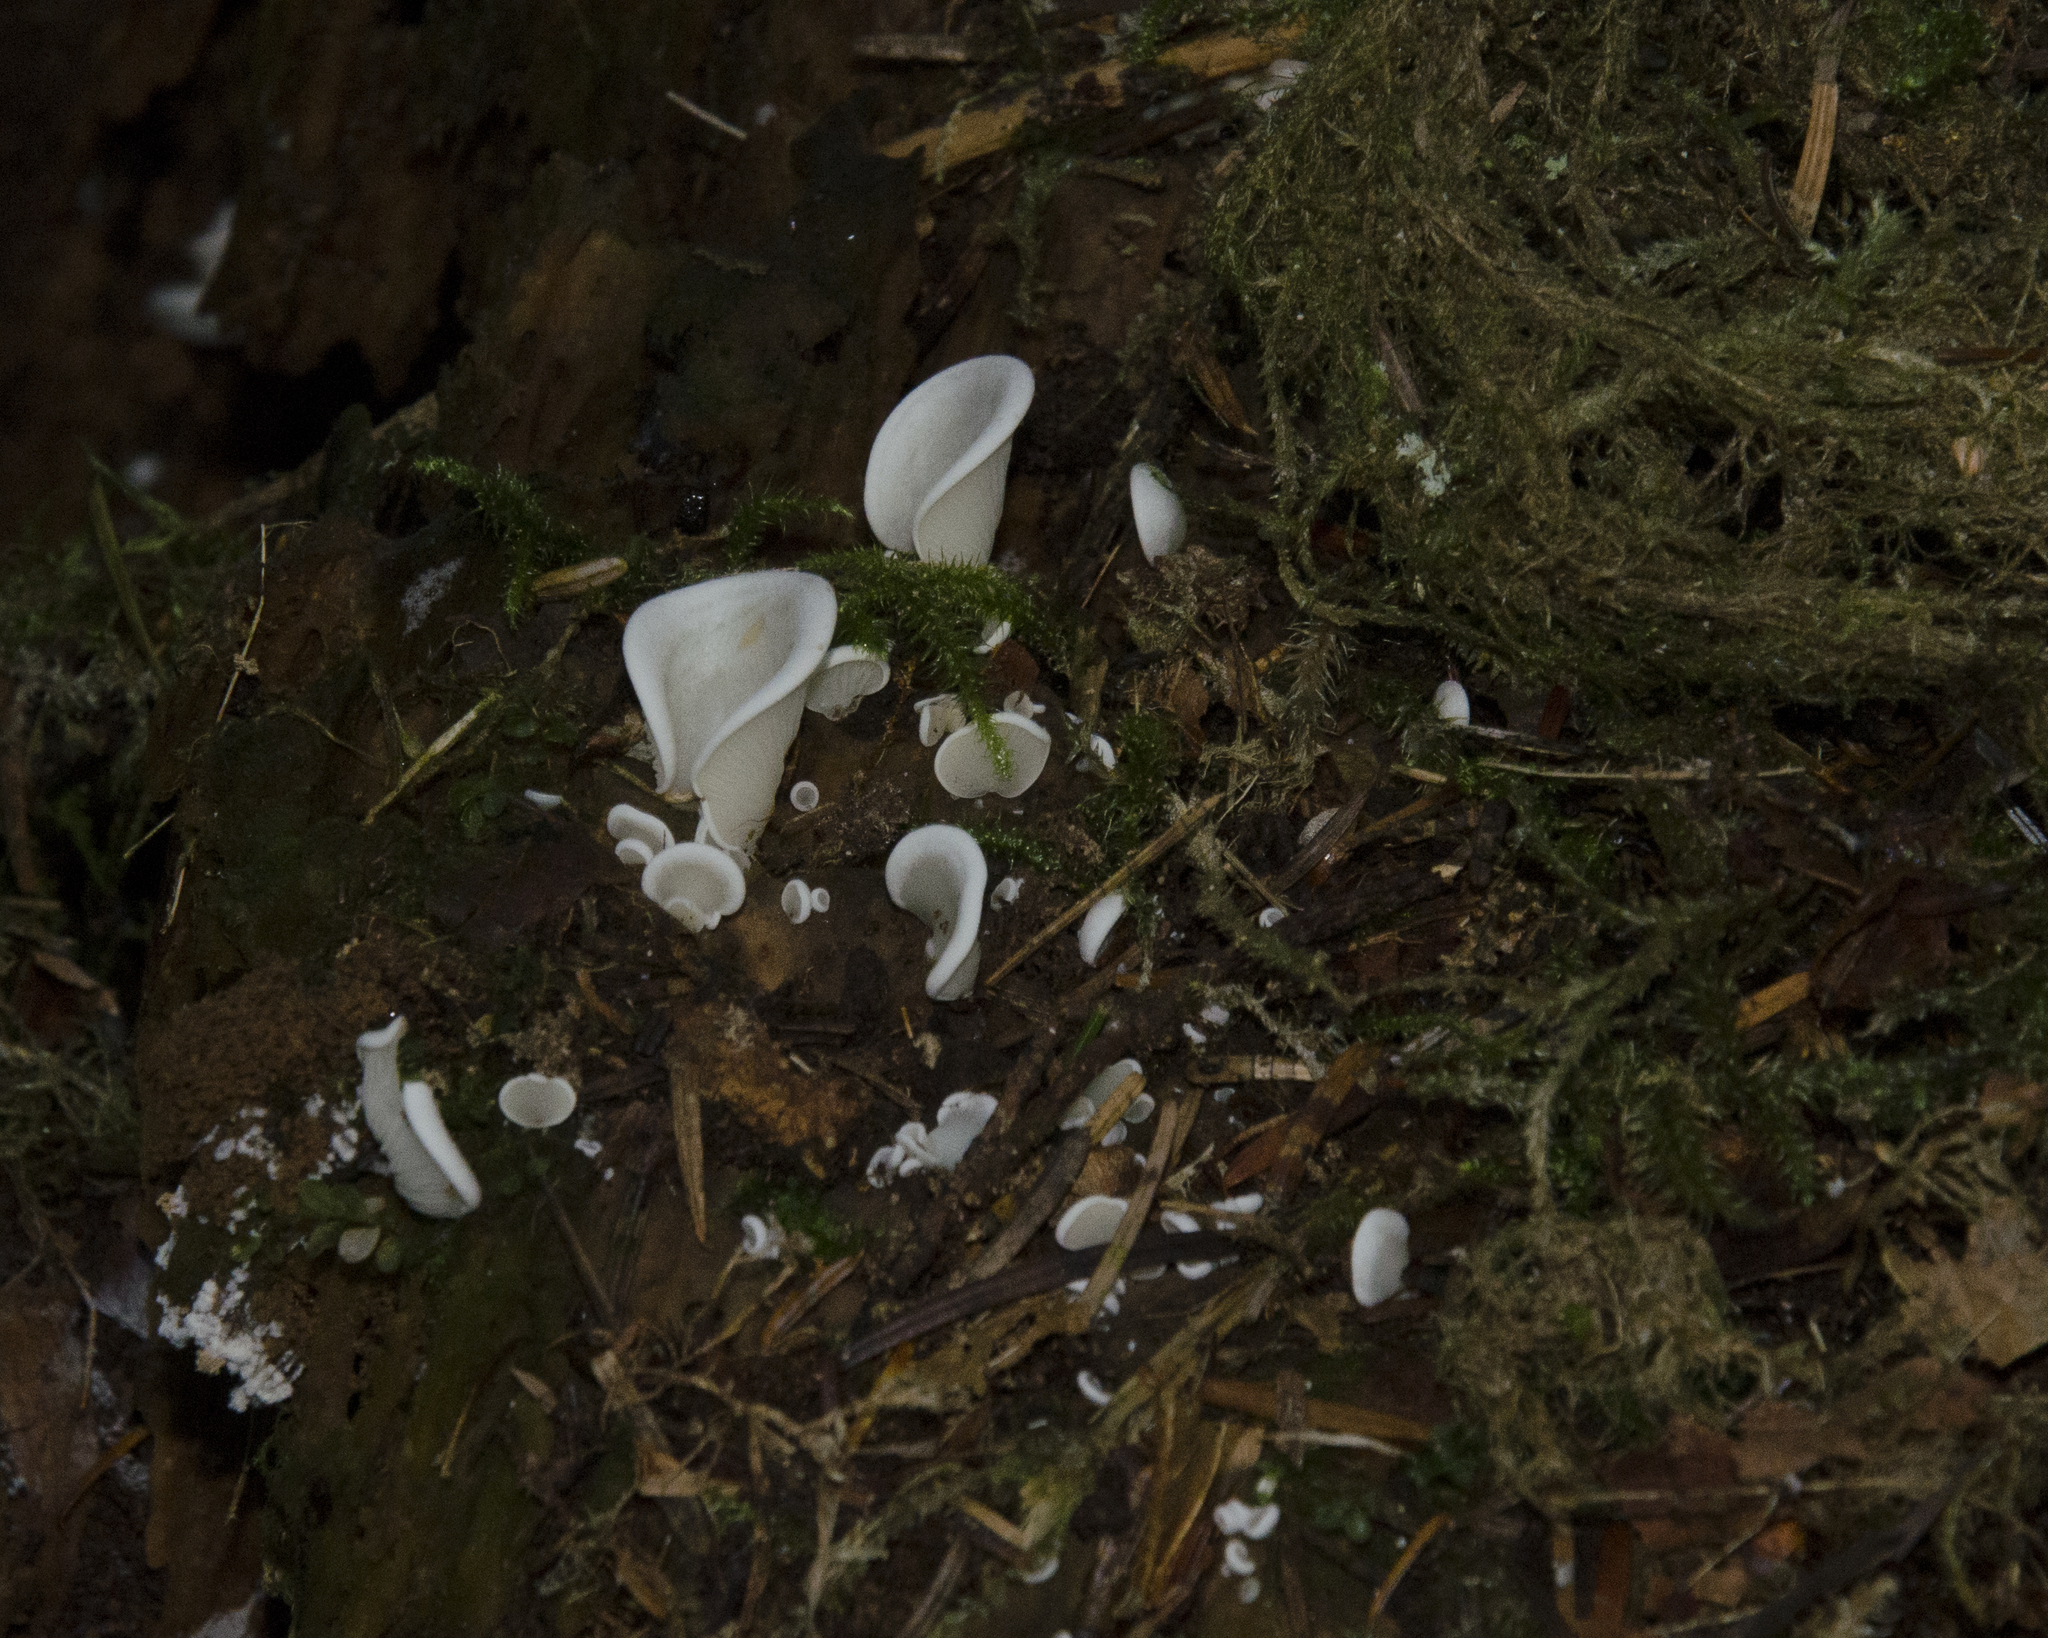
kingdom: Fungi
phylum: Basidiomycota
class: Agaricomycetes
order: Agaricales
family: Marasmiaceae
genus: Pleurocybella
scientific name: Pleurocybella porrigens
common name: Angel's wings
